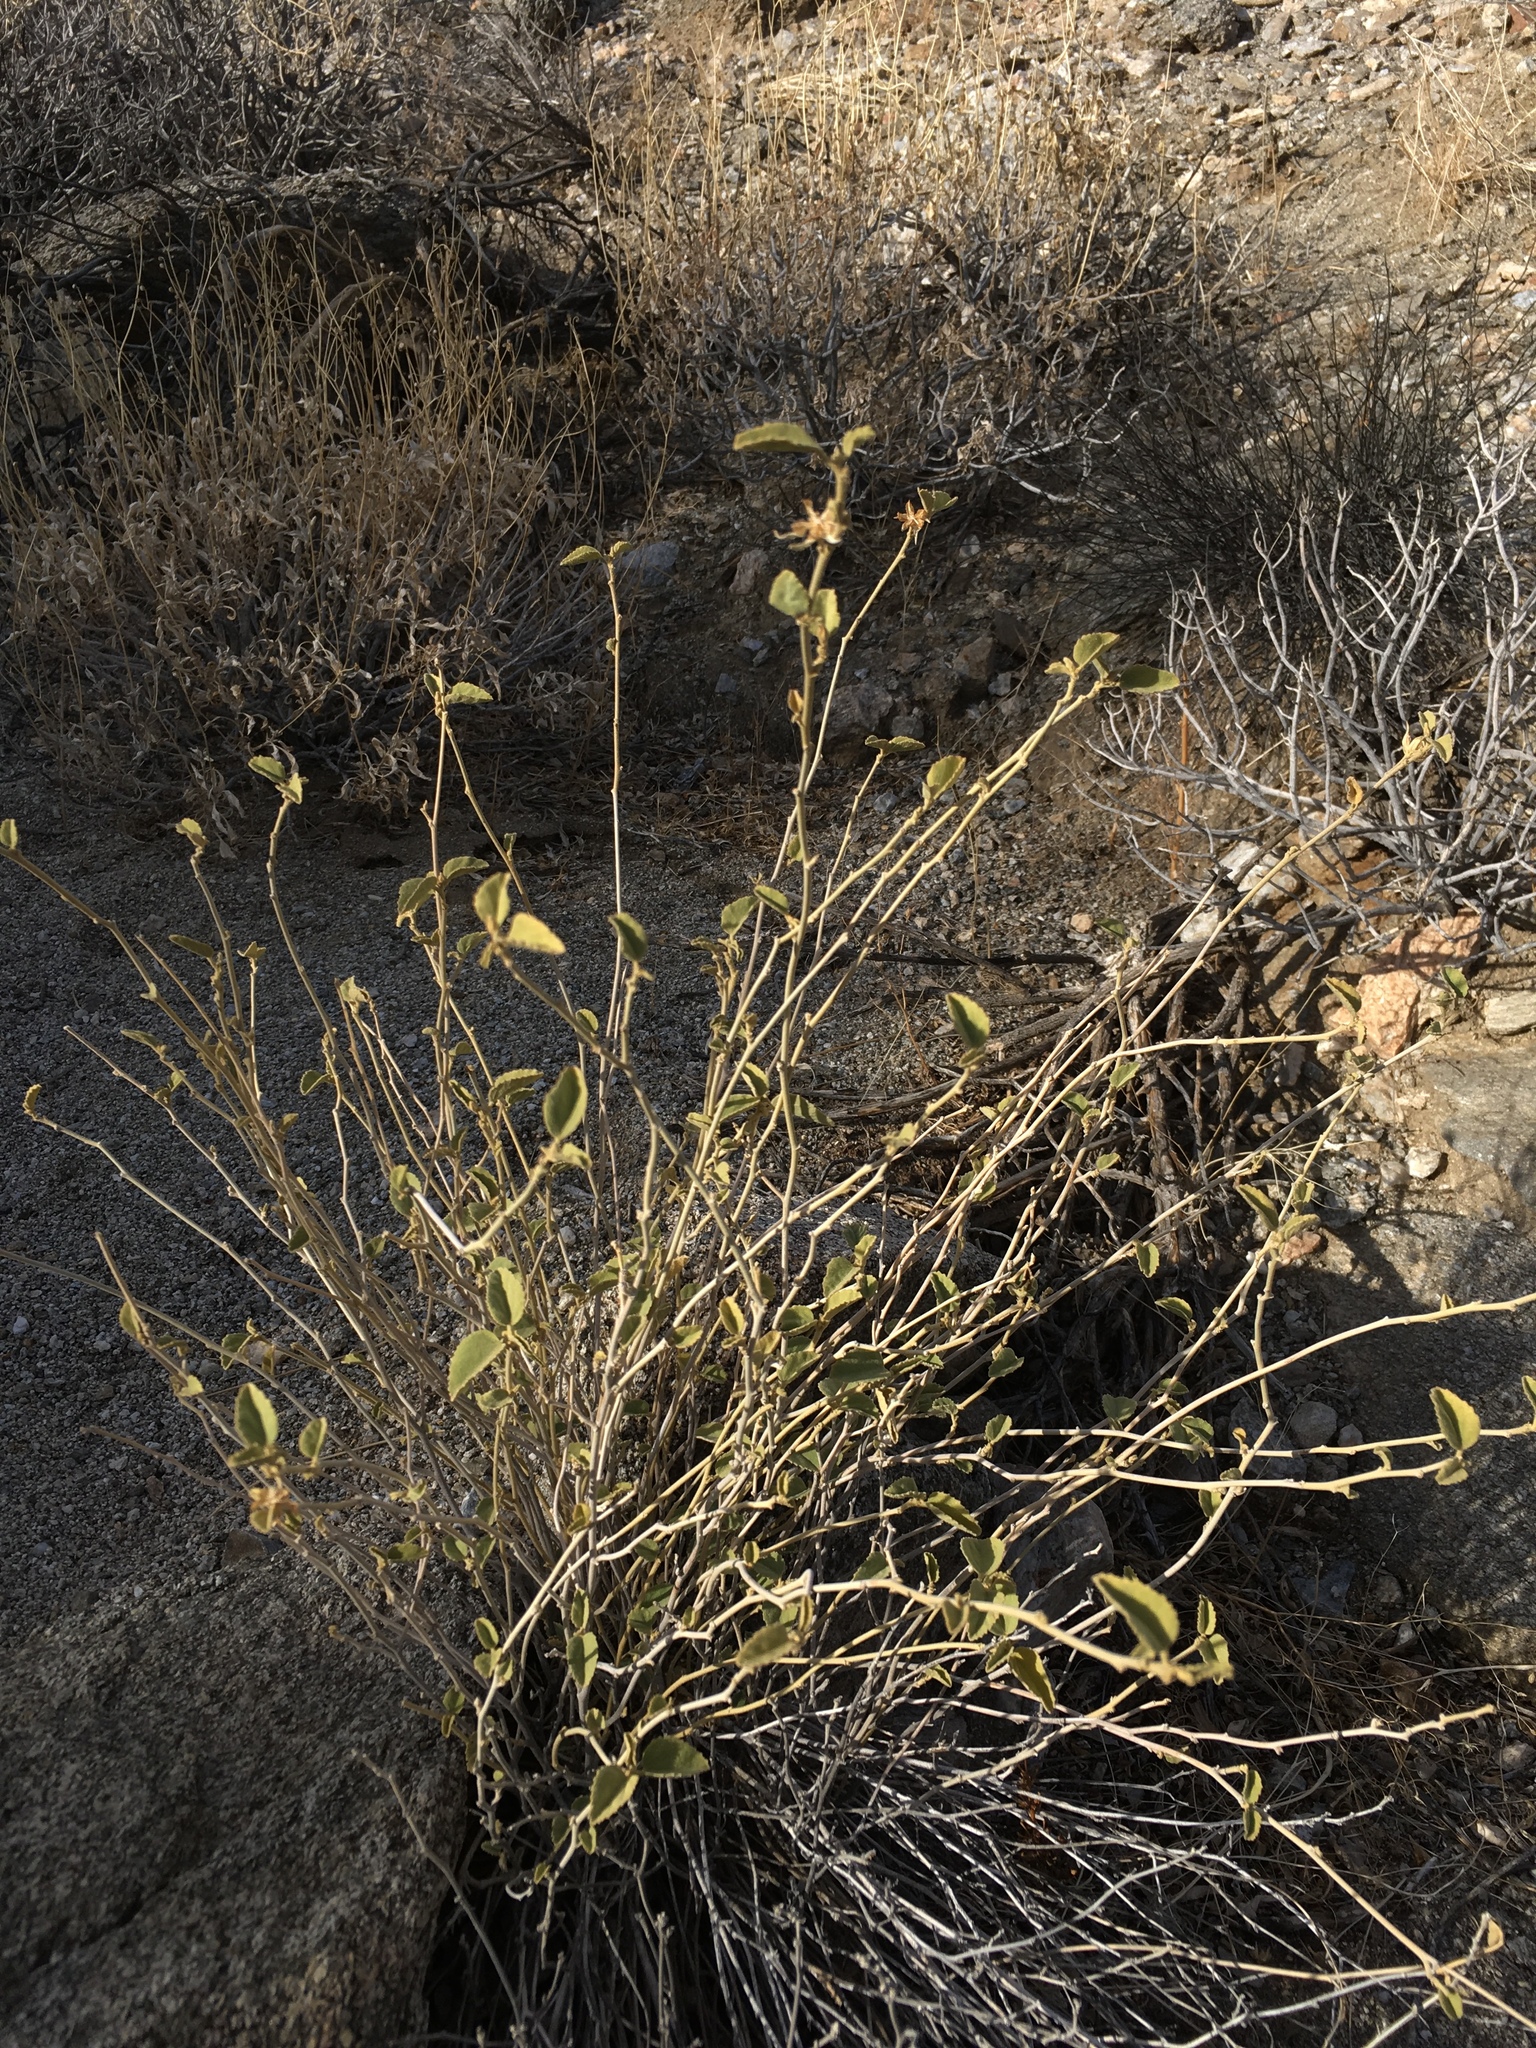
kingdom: Plantae
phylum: Tracheophyta
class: Magnoliopsida
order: Malvales
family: Malvaceae
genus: Hibiscus
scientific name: Hibiscus denudatus
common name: Paleface
